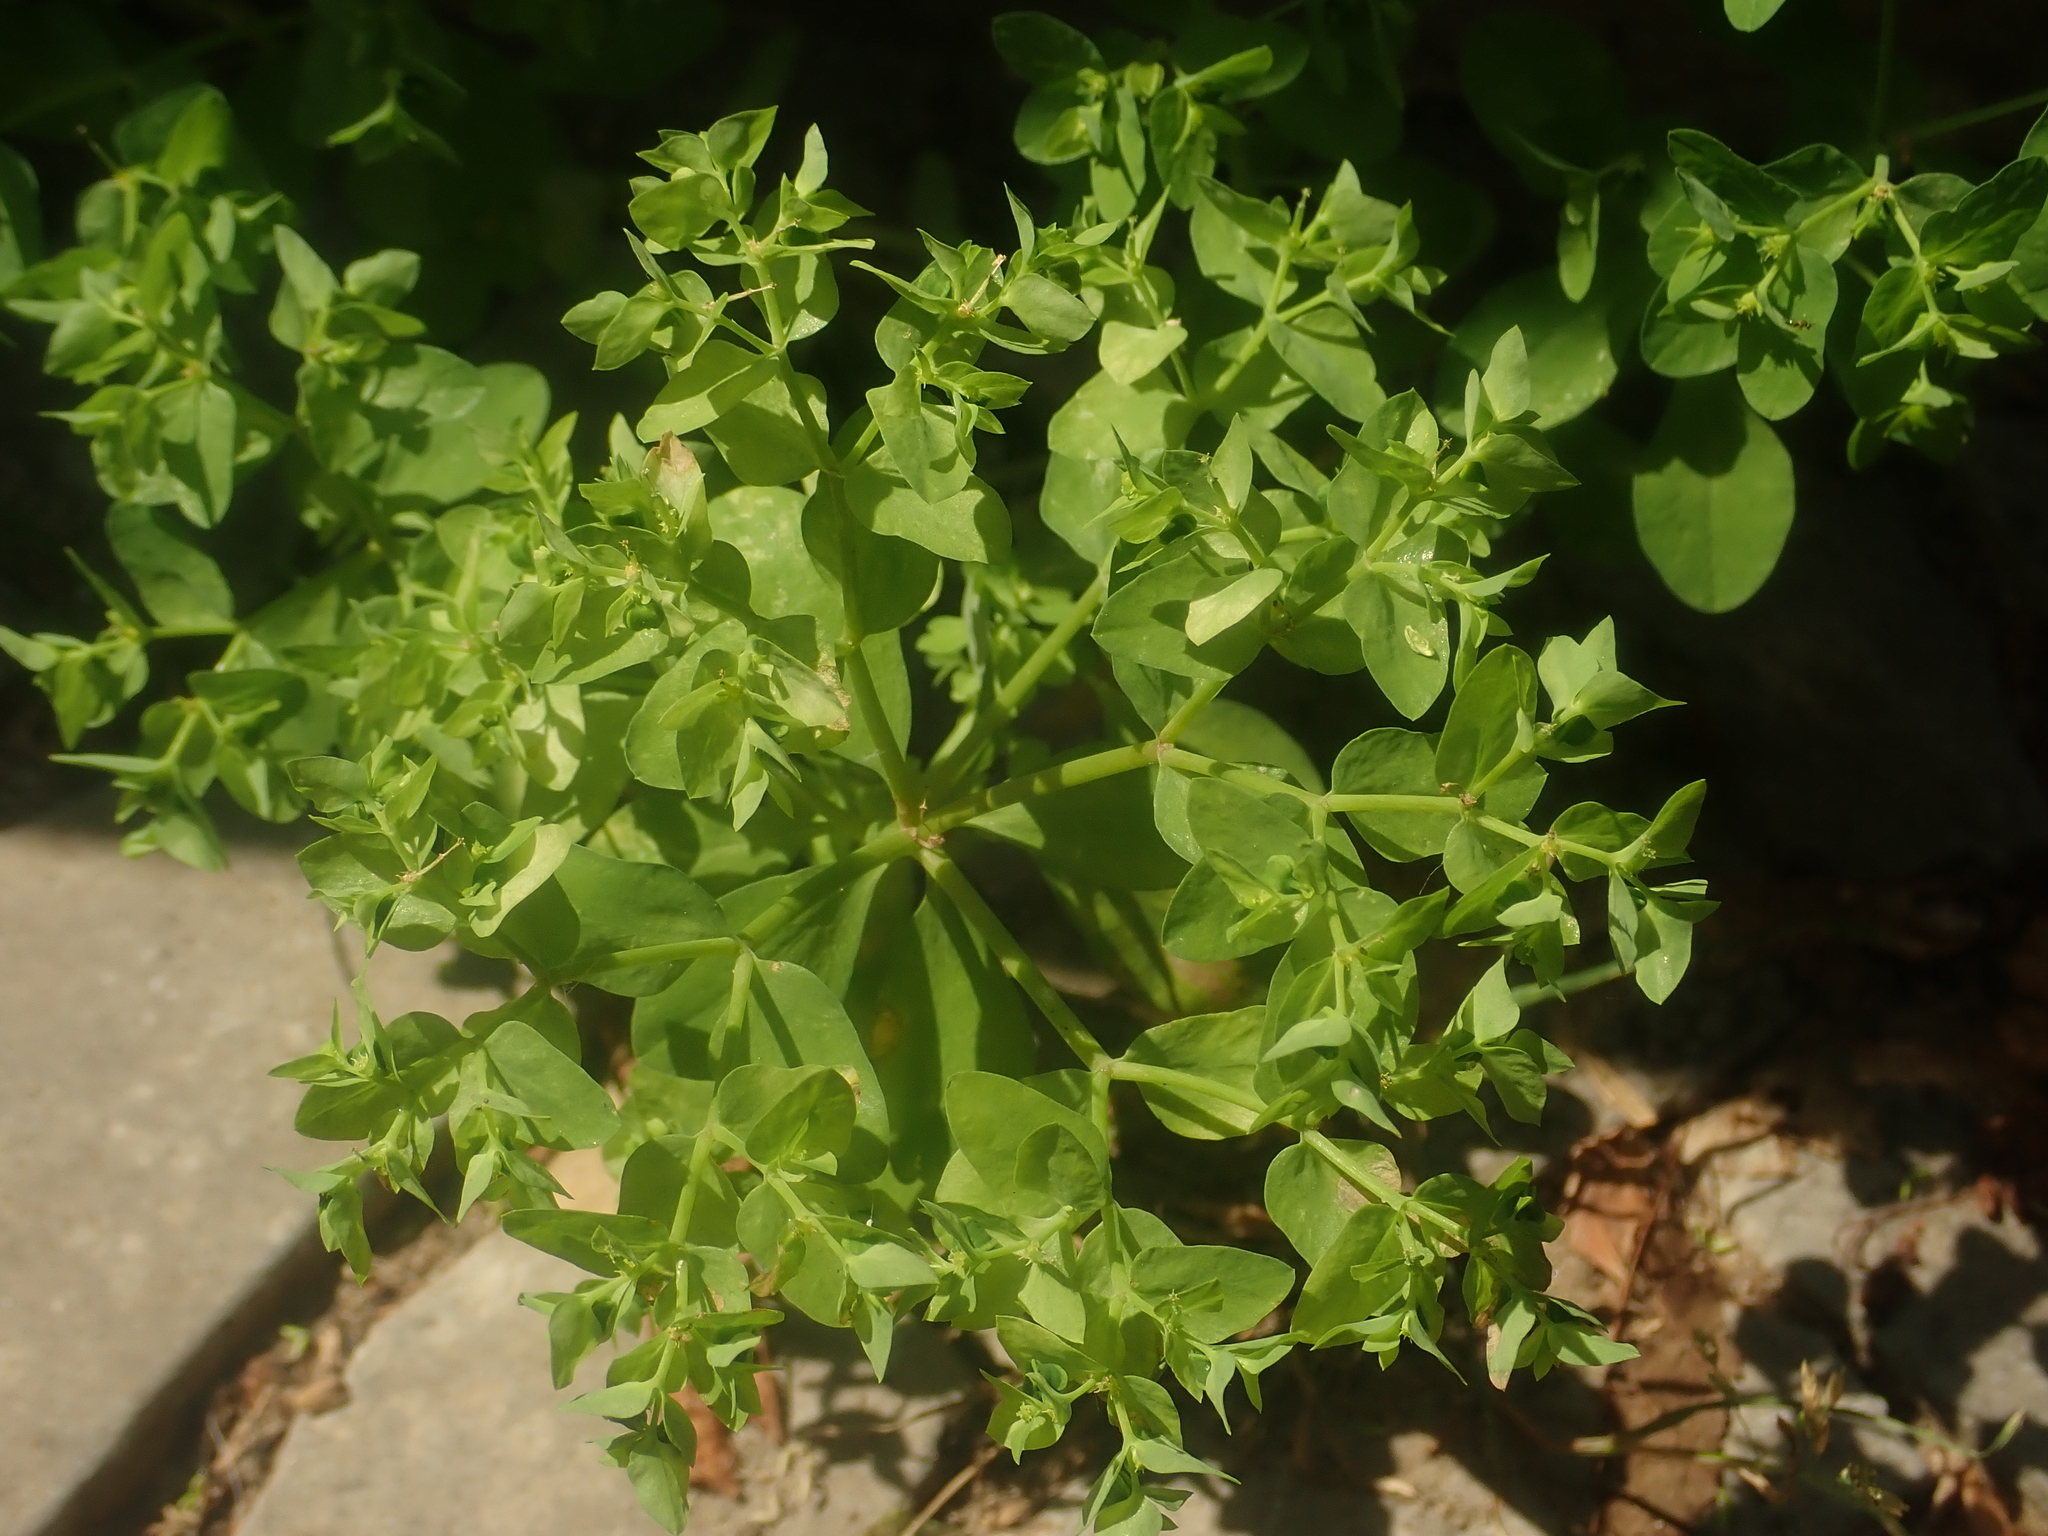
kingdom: Plantae
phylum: Tracheophyta
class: Magnoliopsida
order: Malpighiales
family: Euphorbiaceae
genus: Euphorbia
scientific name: Euphorbia peplus
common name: Petty spurge
